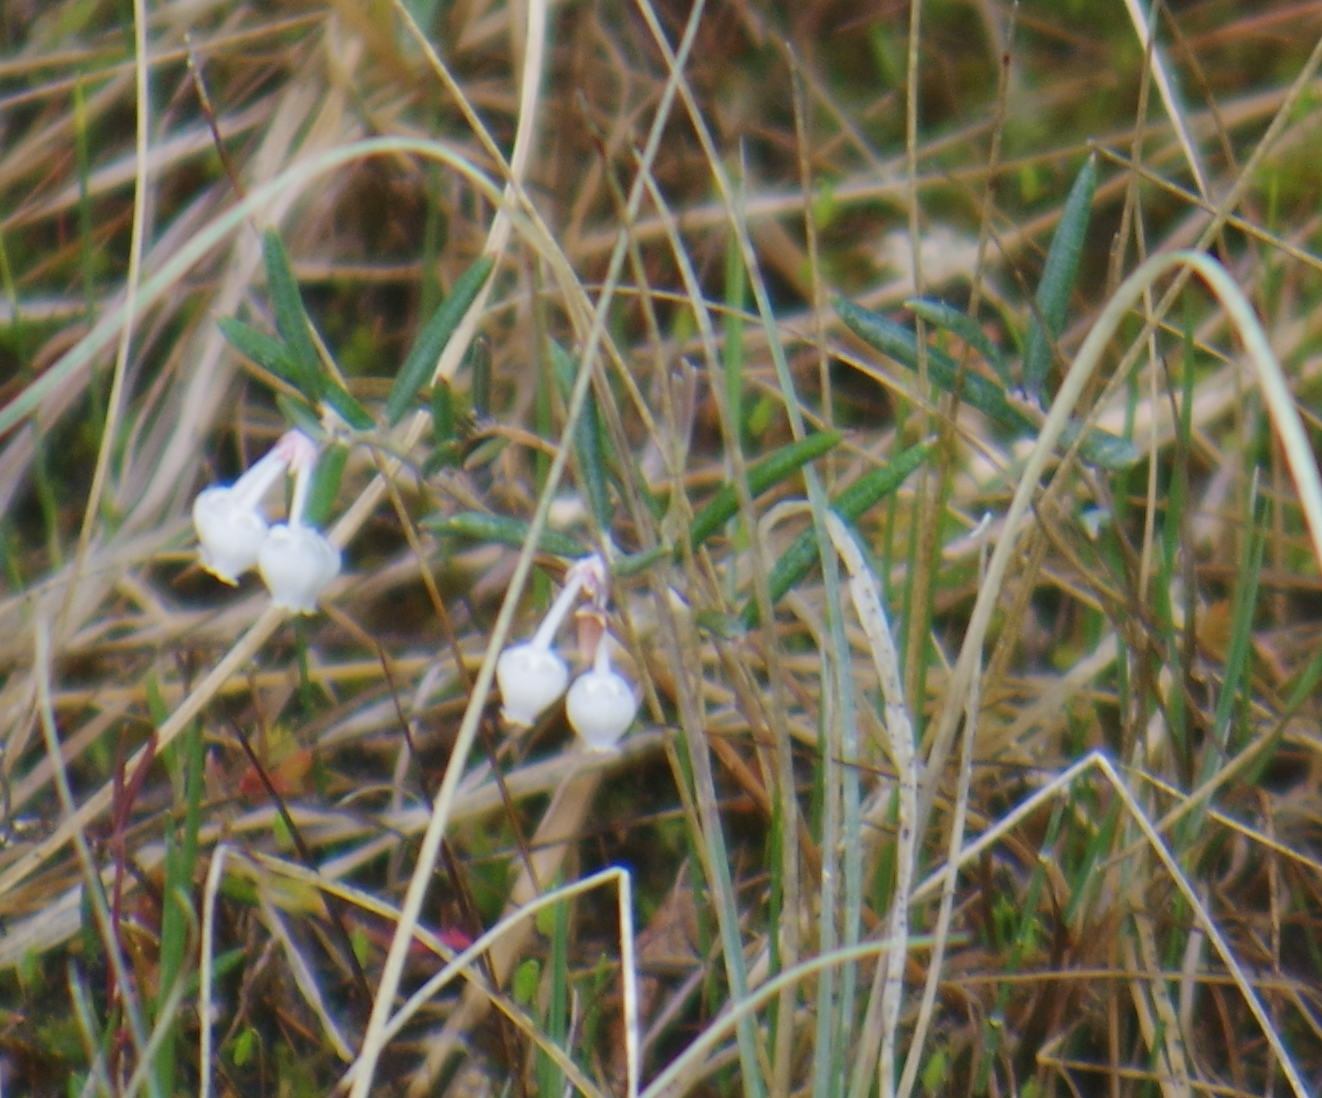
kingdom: Plantae
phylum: Tracheophyta
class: Magnoliopsida
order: Ericales
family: Ericaceae
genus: Andromeda
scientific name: Andromeda polifolia
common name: Bog-rosemary
